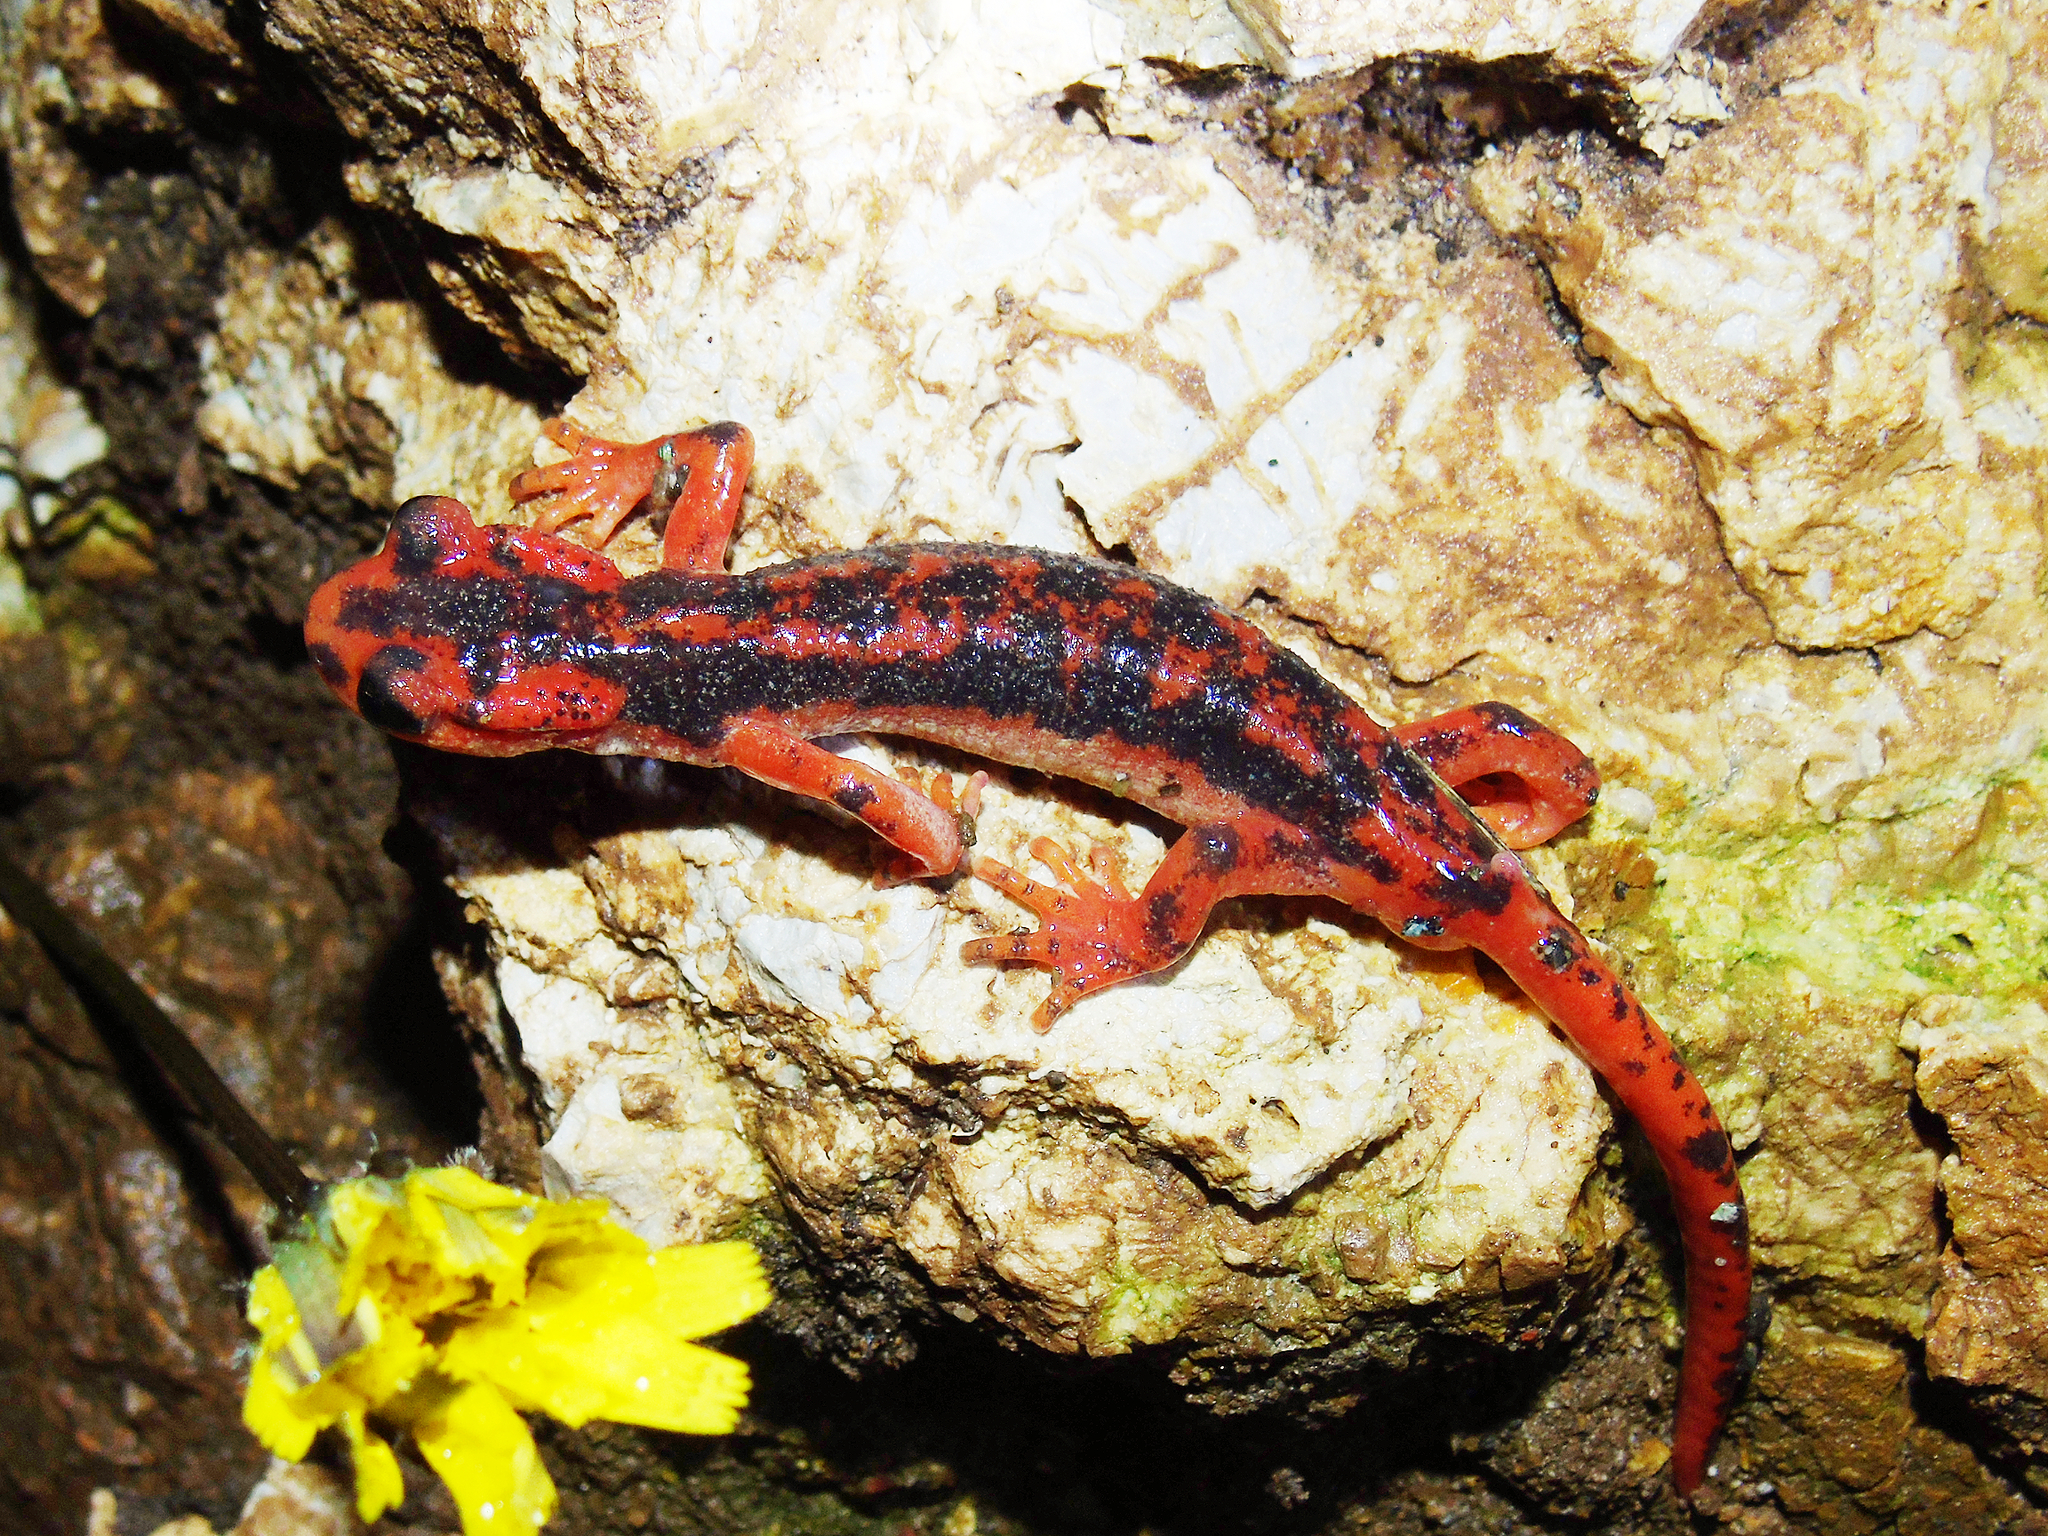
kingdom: Animalia
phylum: Chordata
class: Amphibia
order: Caudata
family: Salamandridae
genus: Lyciasalamandra
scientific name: Lyciasalamandra fazilae
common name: Fazila's salamander
